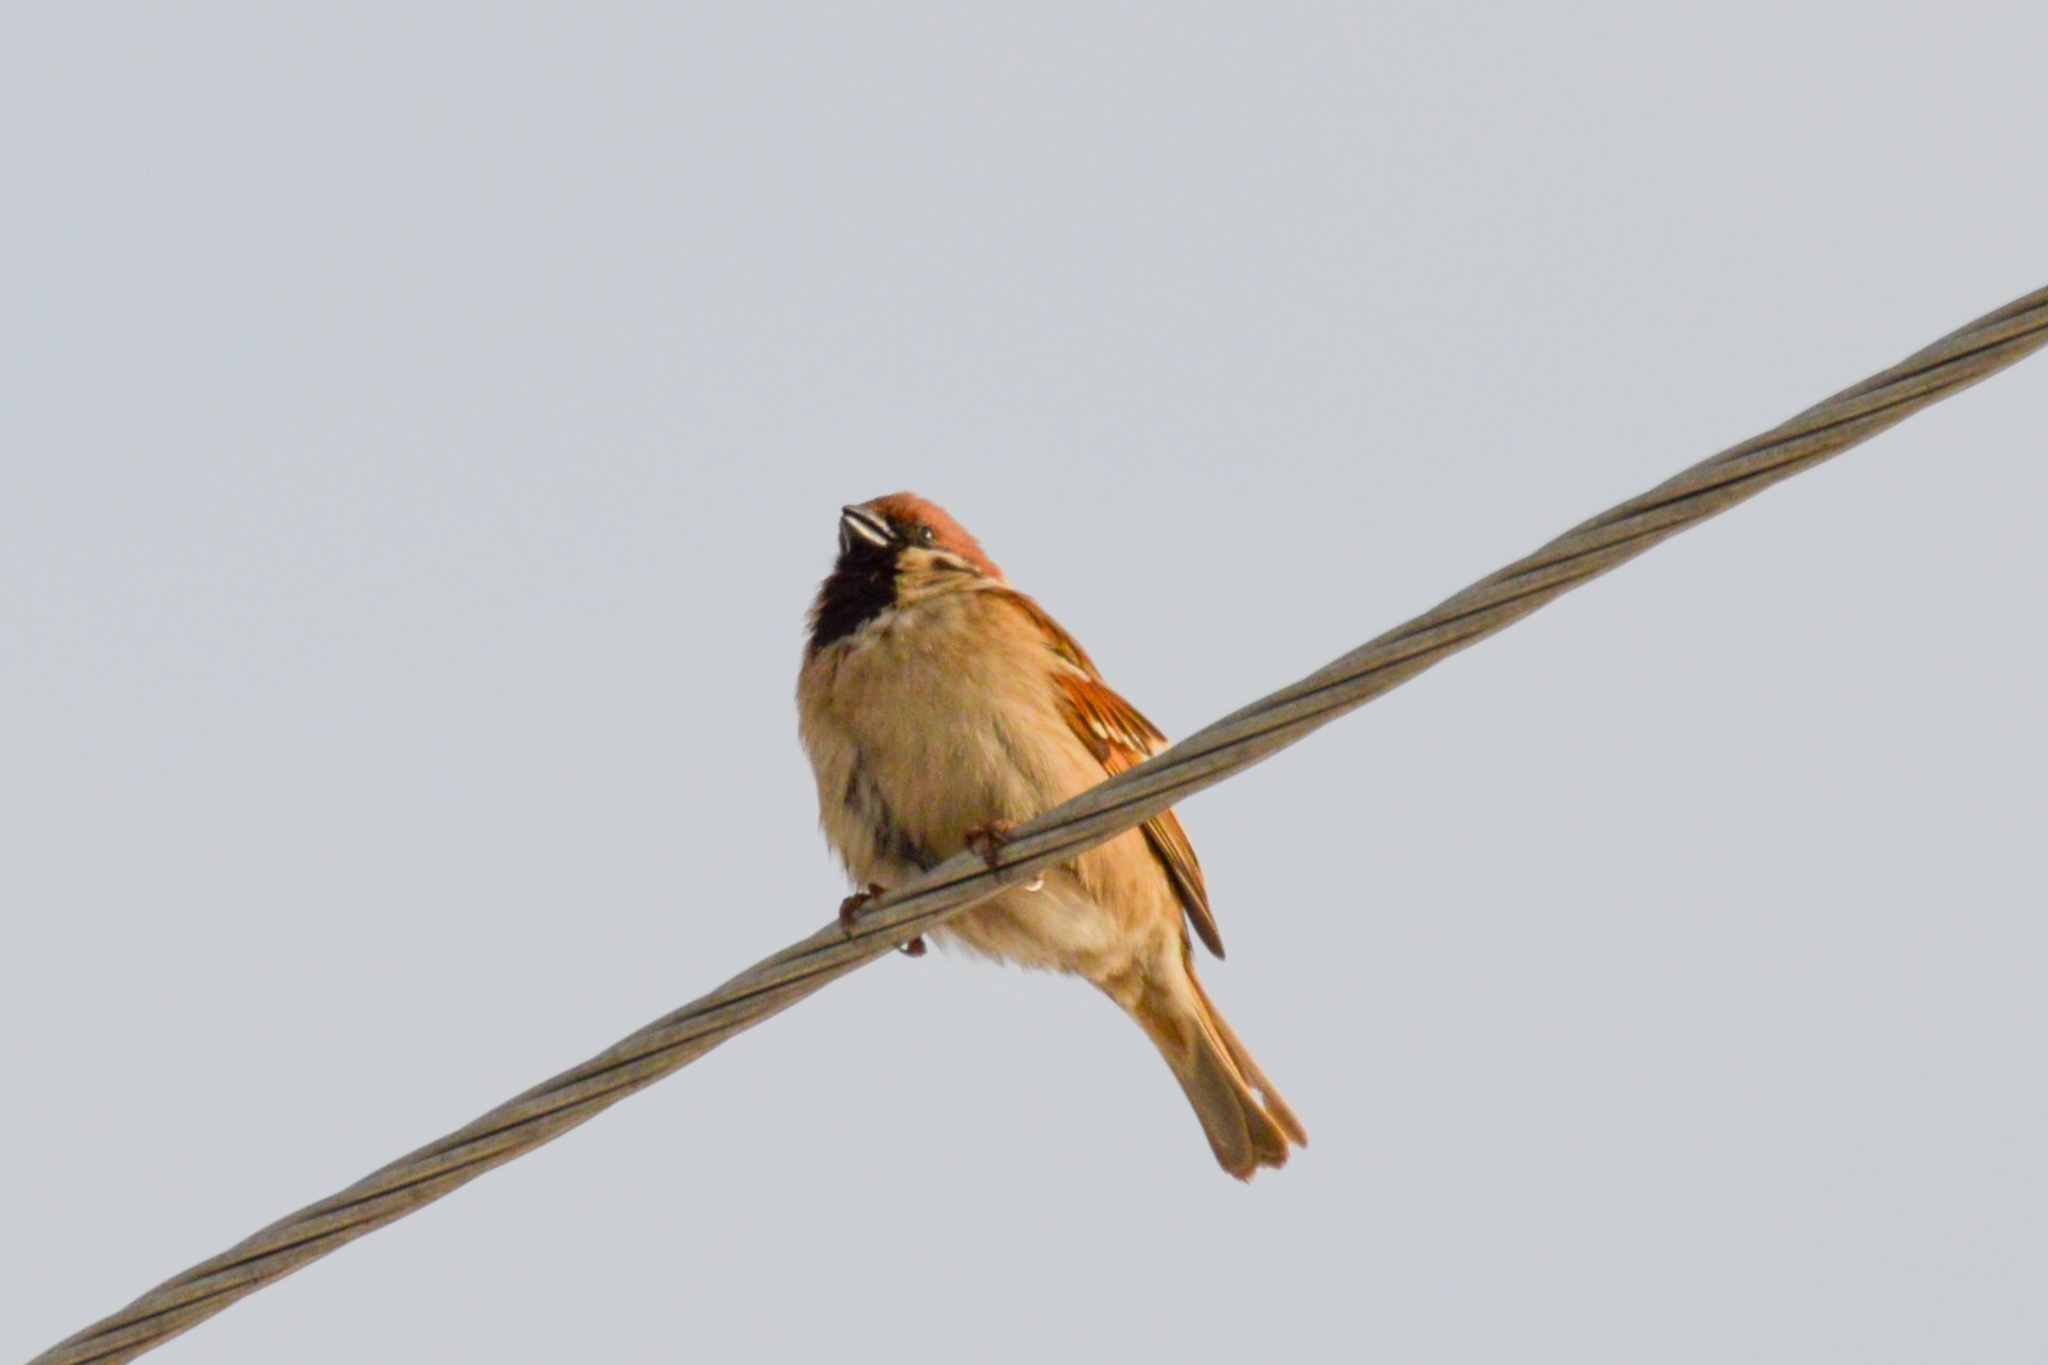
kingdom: Animalia
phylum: Chordata
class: Aves
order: Passeriformes
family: Passeridae
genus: Passer
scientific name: Passer montanus
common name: Eurasian tree sparrow
